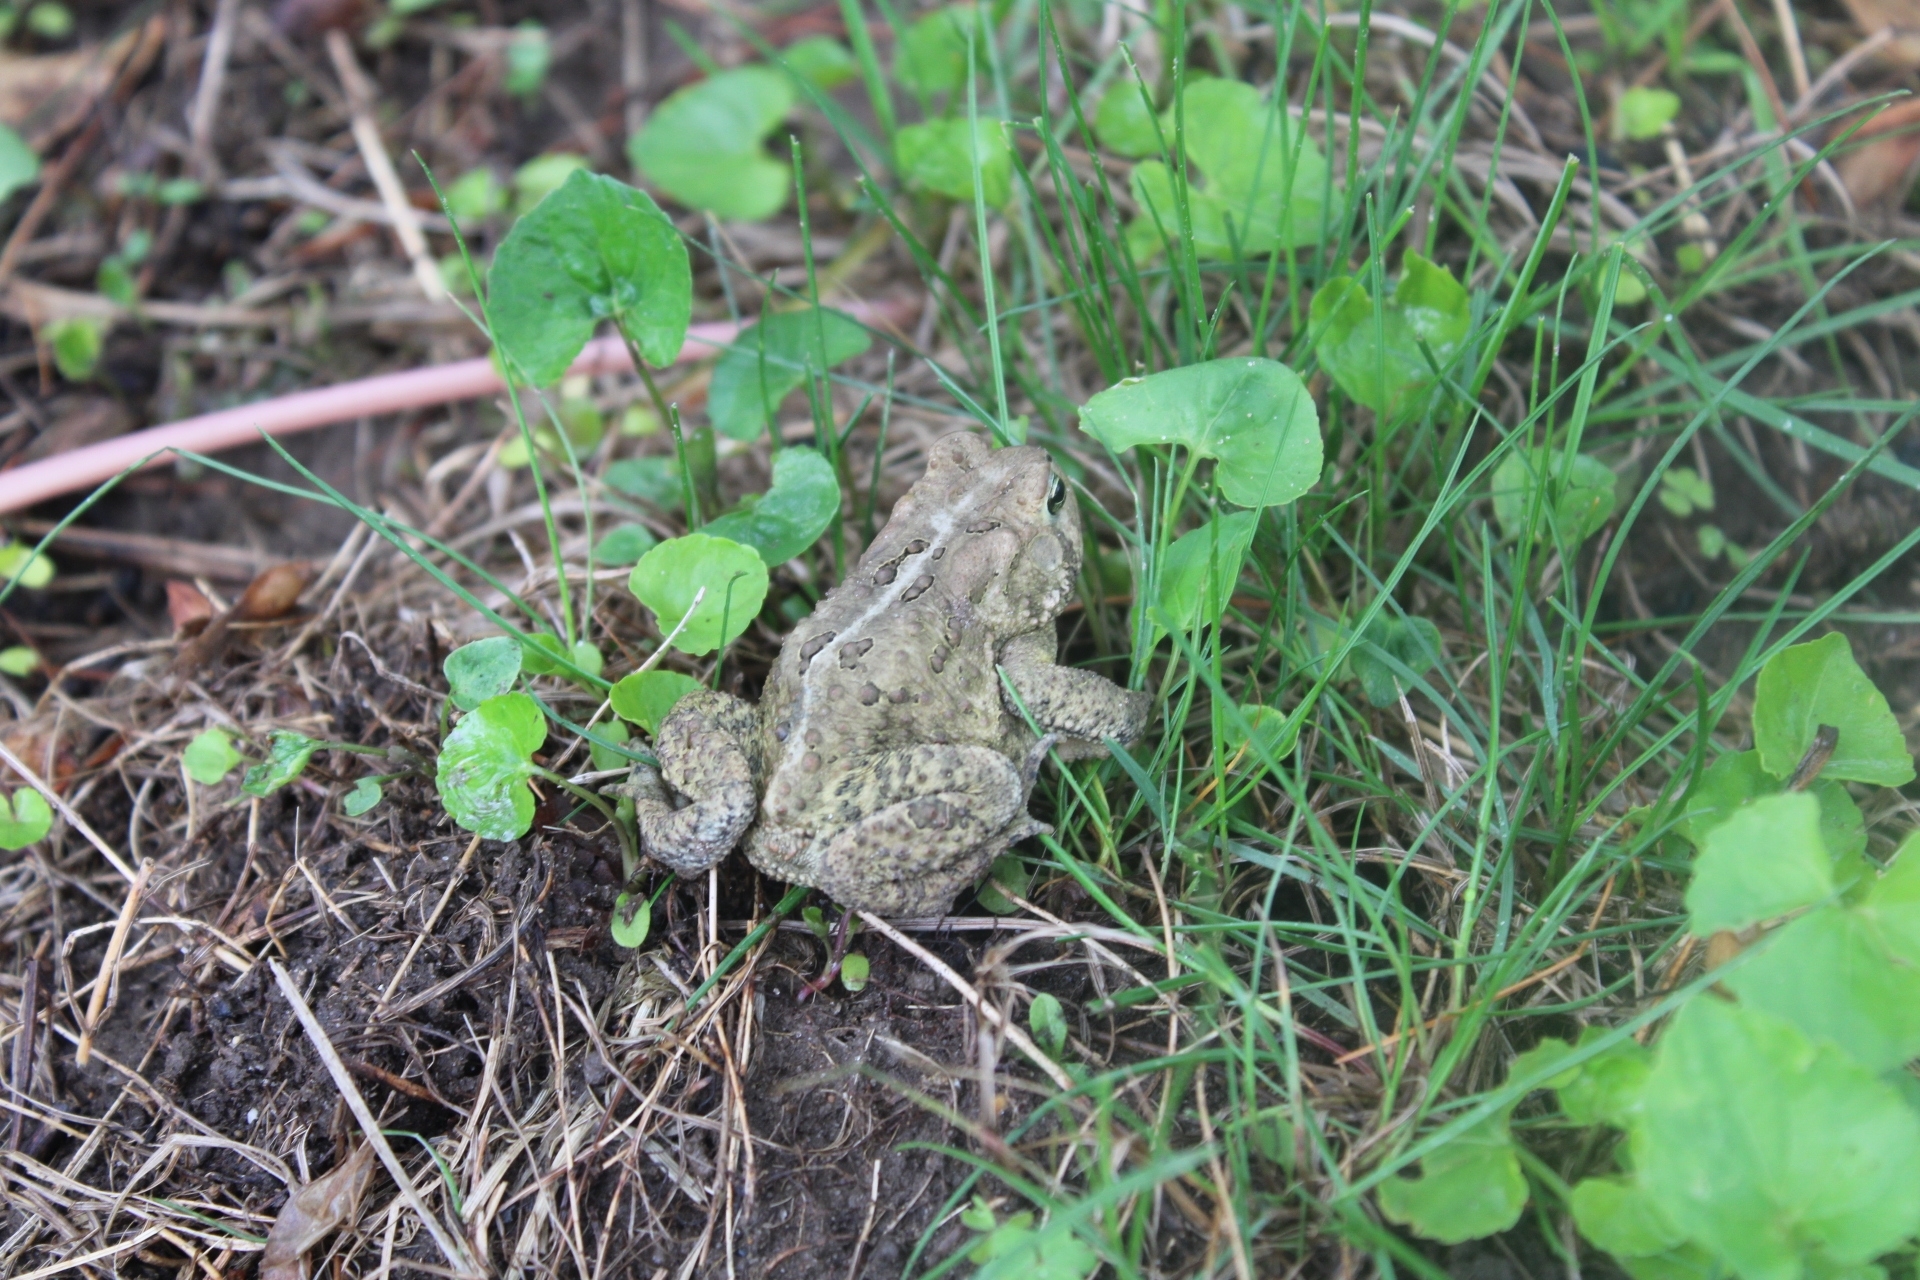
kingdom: Animalia
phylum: Chordata
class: Amphibia
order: Anura
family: Bufonidae
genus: Anaxyrus
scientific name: Anaxyrus americanus
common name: American toad
